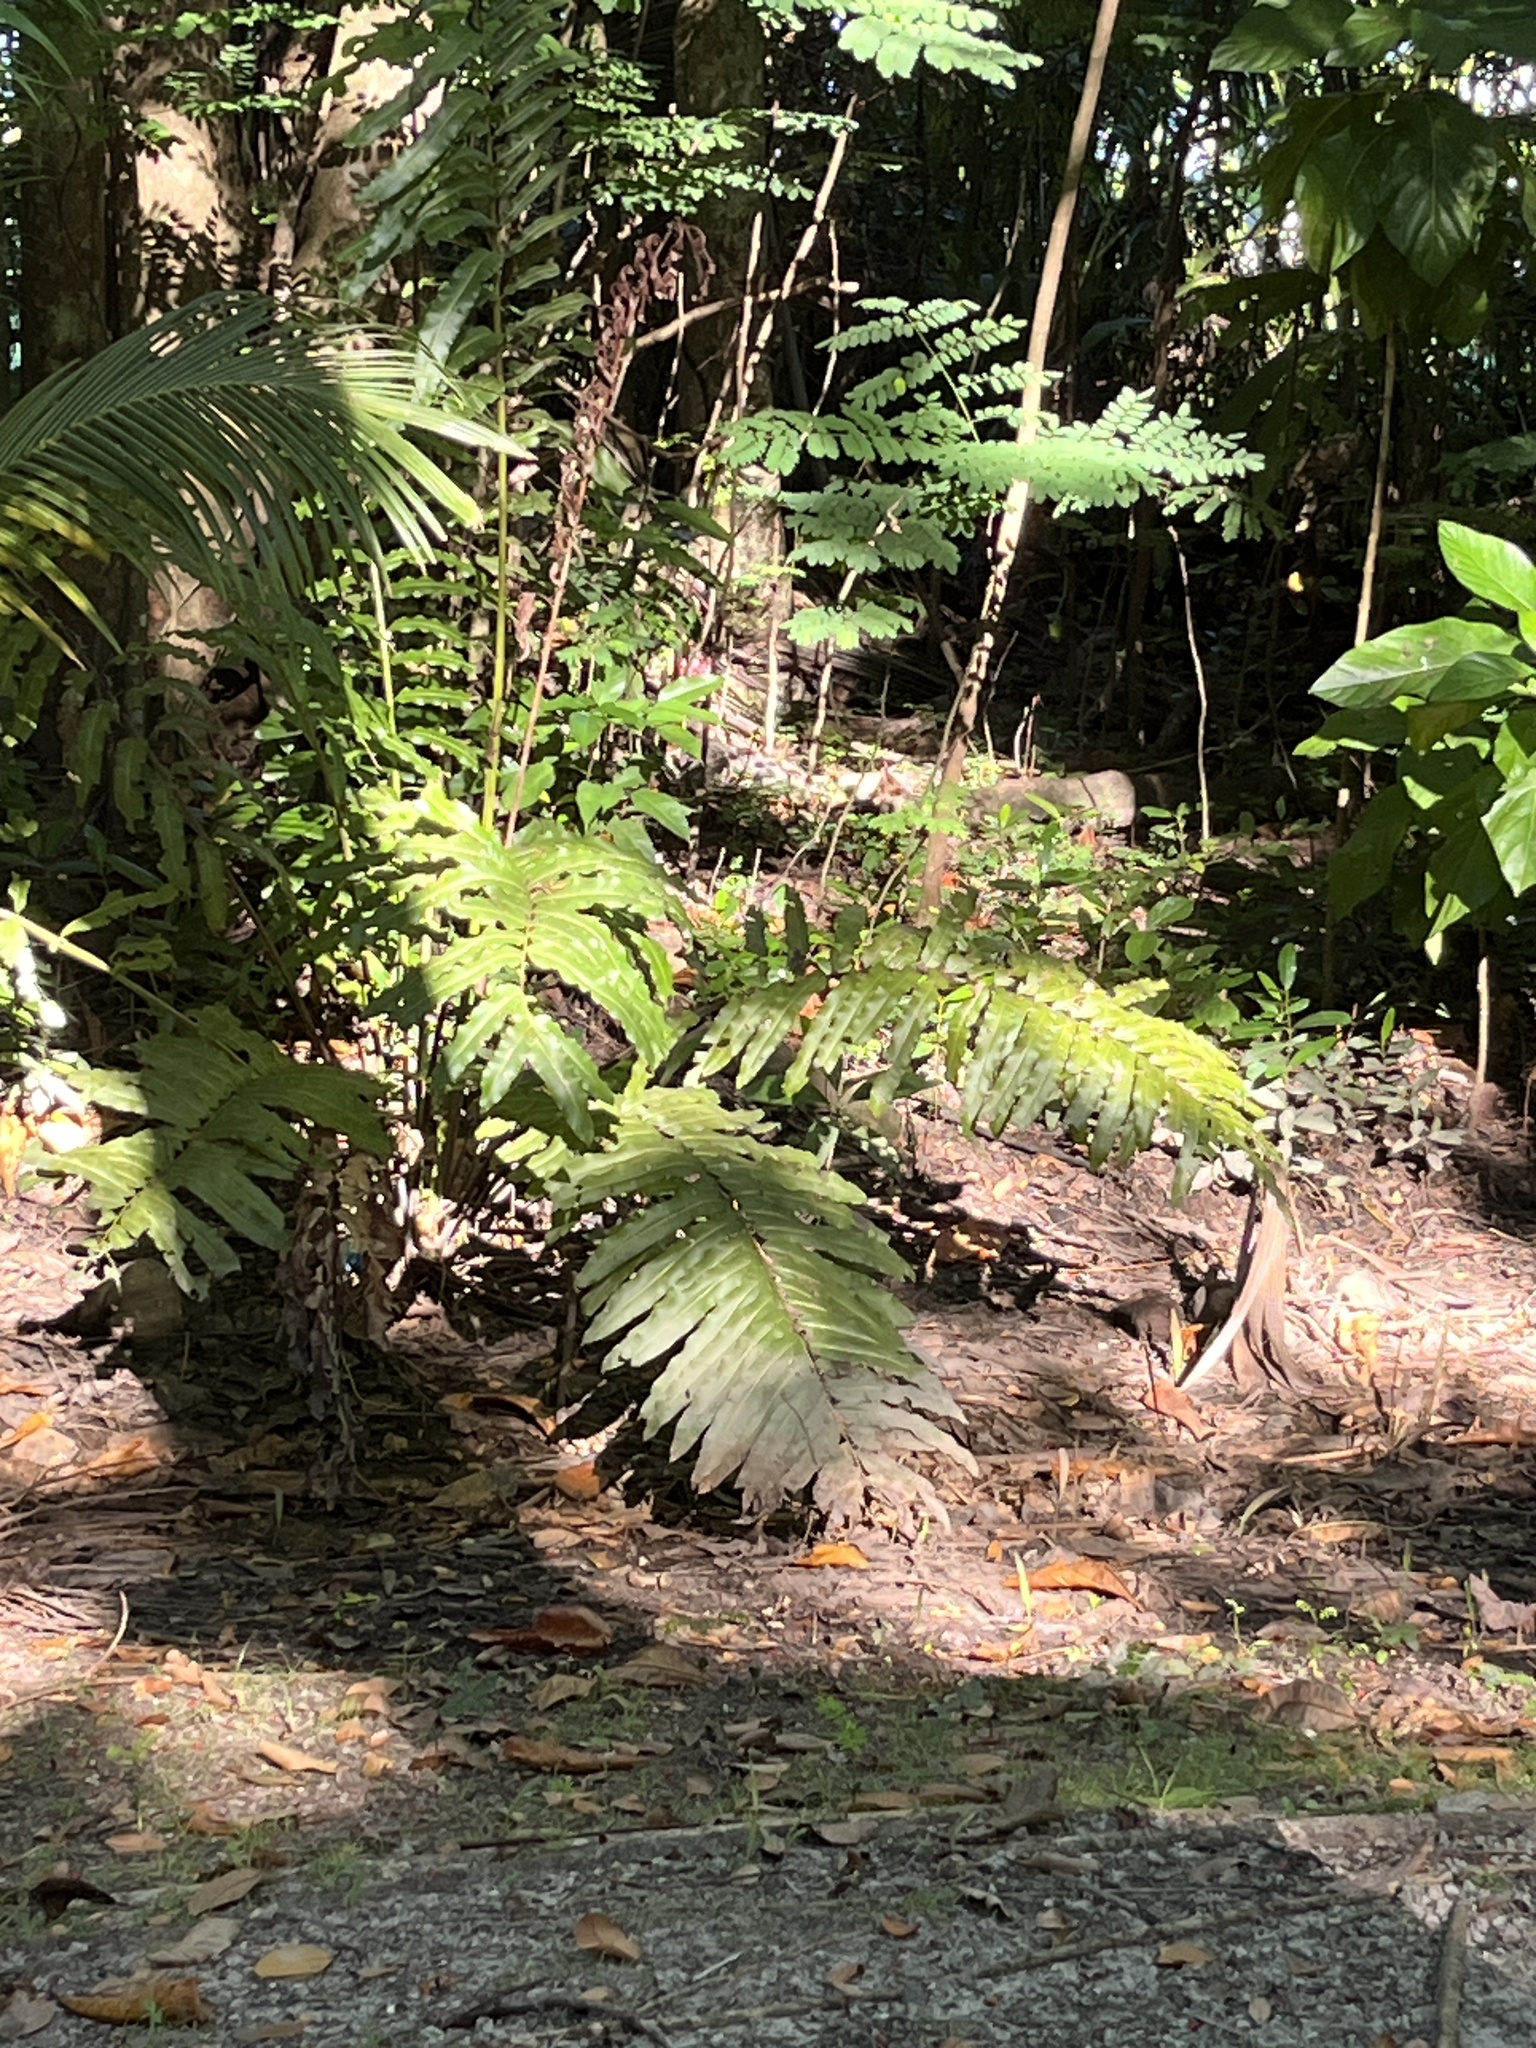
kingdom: Plantae
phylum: Tracheophyta
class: Polypodiopsida
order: Polypodiales
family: Pteridaceae
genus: Acrostichum
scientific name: Acrostichum danaeifolium
